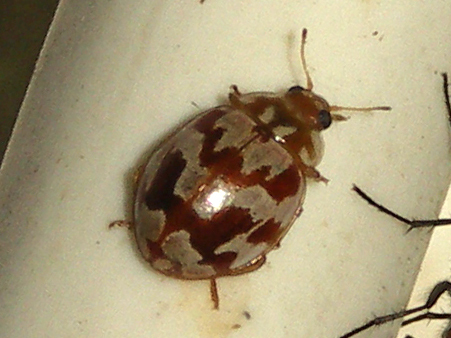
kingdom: Animalia
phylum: Arthropoda
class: Insecta
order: Coleoptera
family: Coccinellidae
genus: Myrrha
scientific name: Myrrha octodecimguttata
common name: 18-spot ladybird
